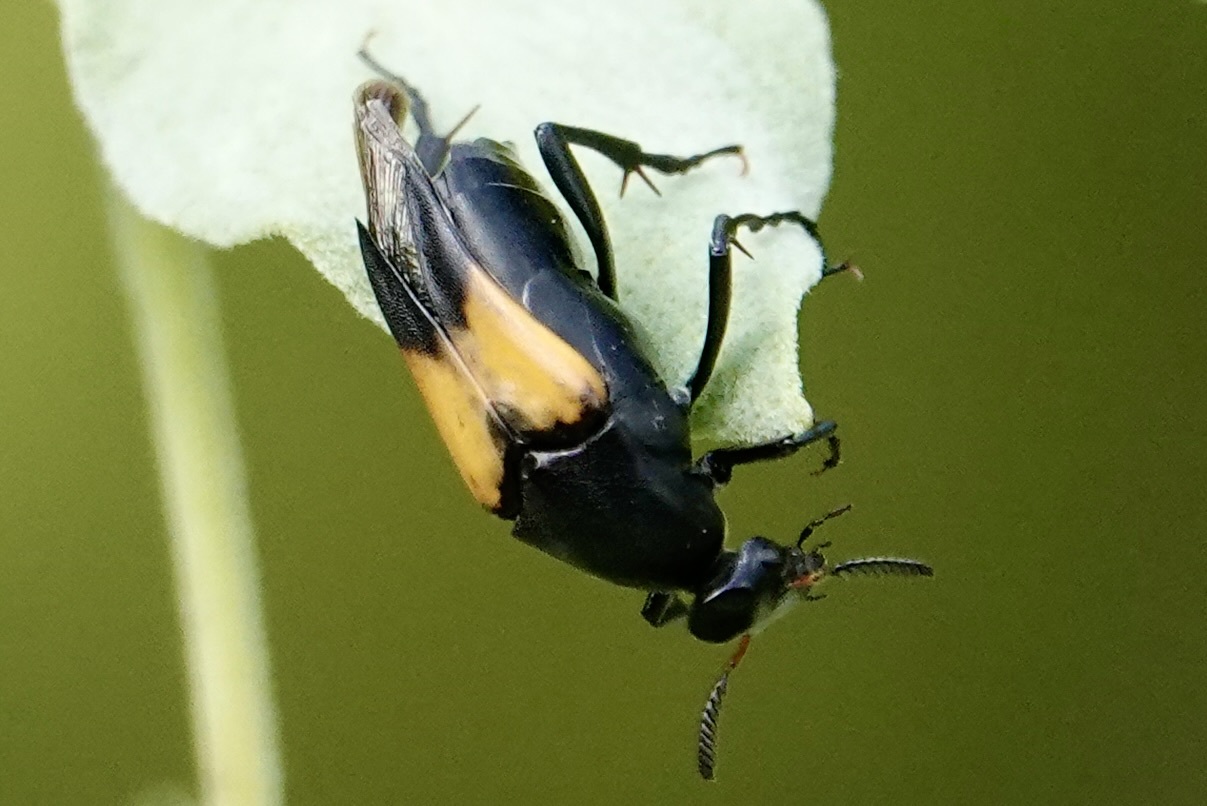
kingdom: Animalia
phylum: Arthropoda
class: Insecta
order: Coleoptera
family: Ripiphoridae
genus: Macrosiagon
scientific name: Macrosiagon dimidiata
